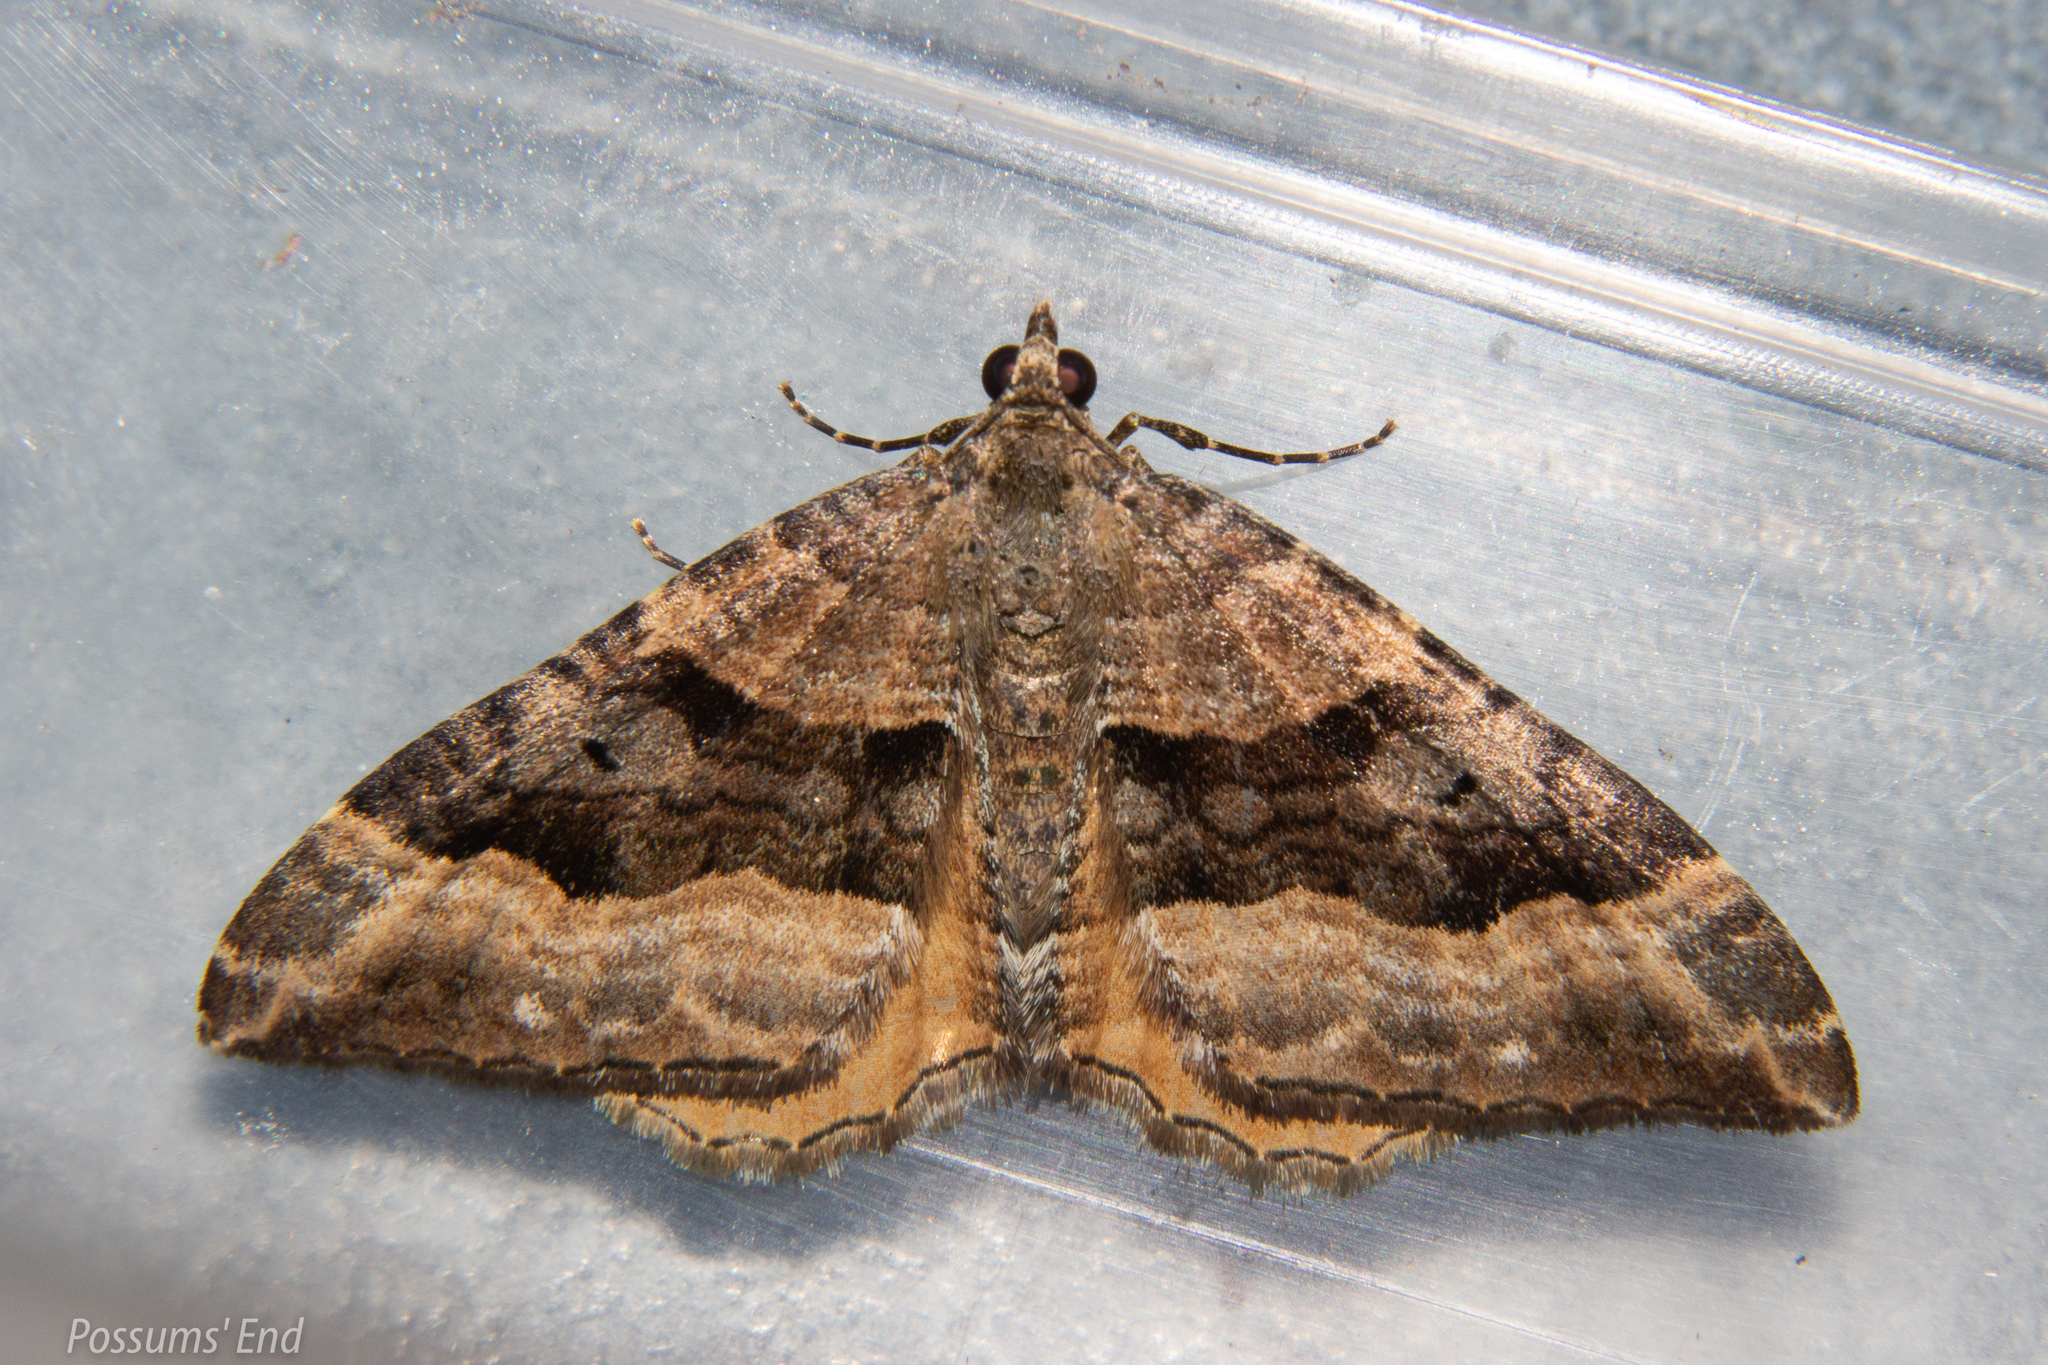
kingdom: Animalia
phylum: Arthropoda
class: Insecta
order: Lepidoptera
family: Geometridae
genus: Hydriomena
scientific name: Hydriomena deltoidata
